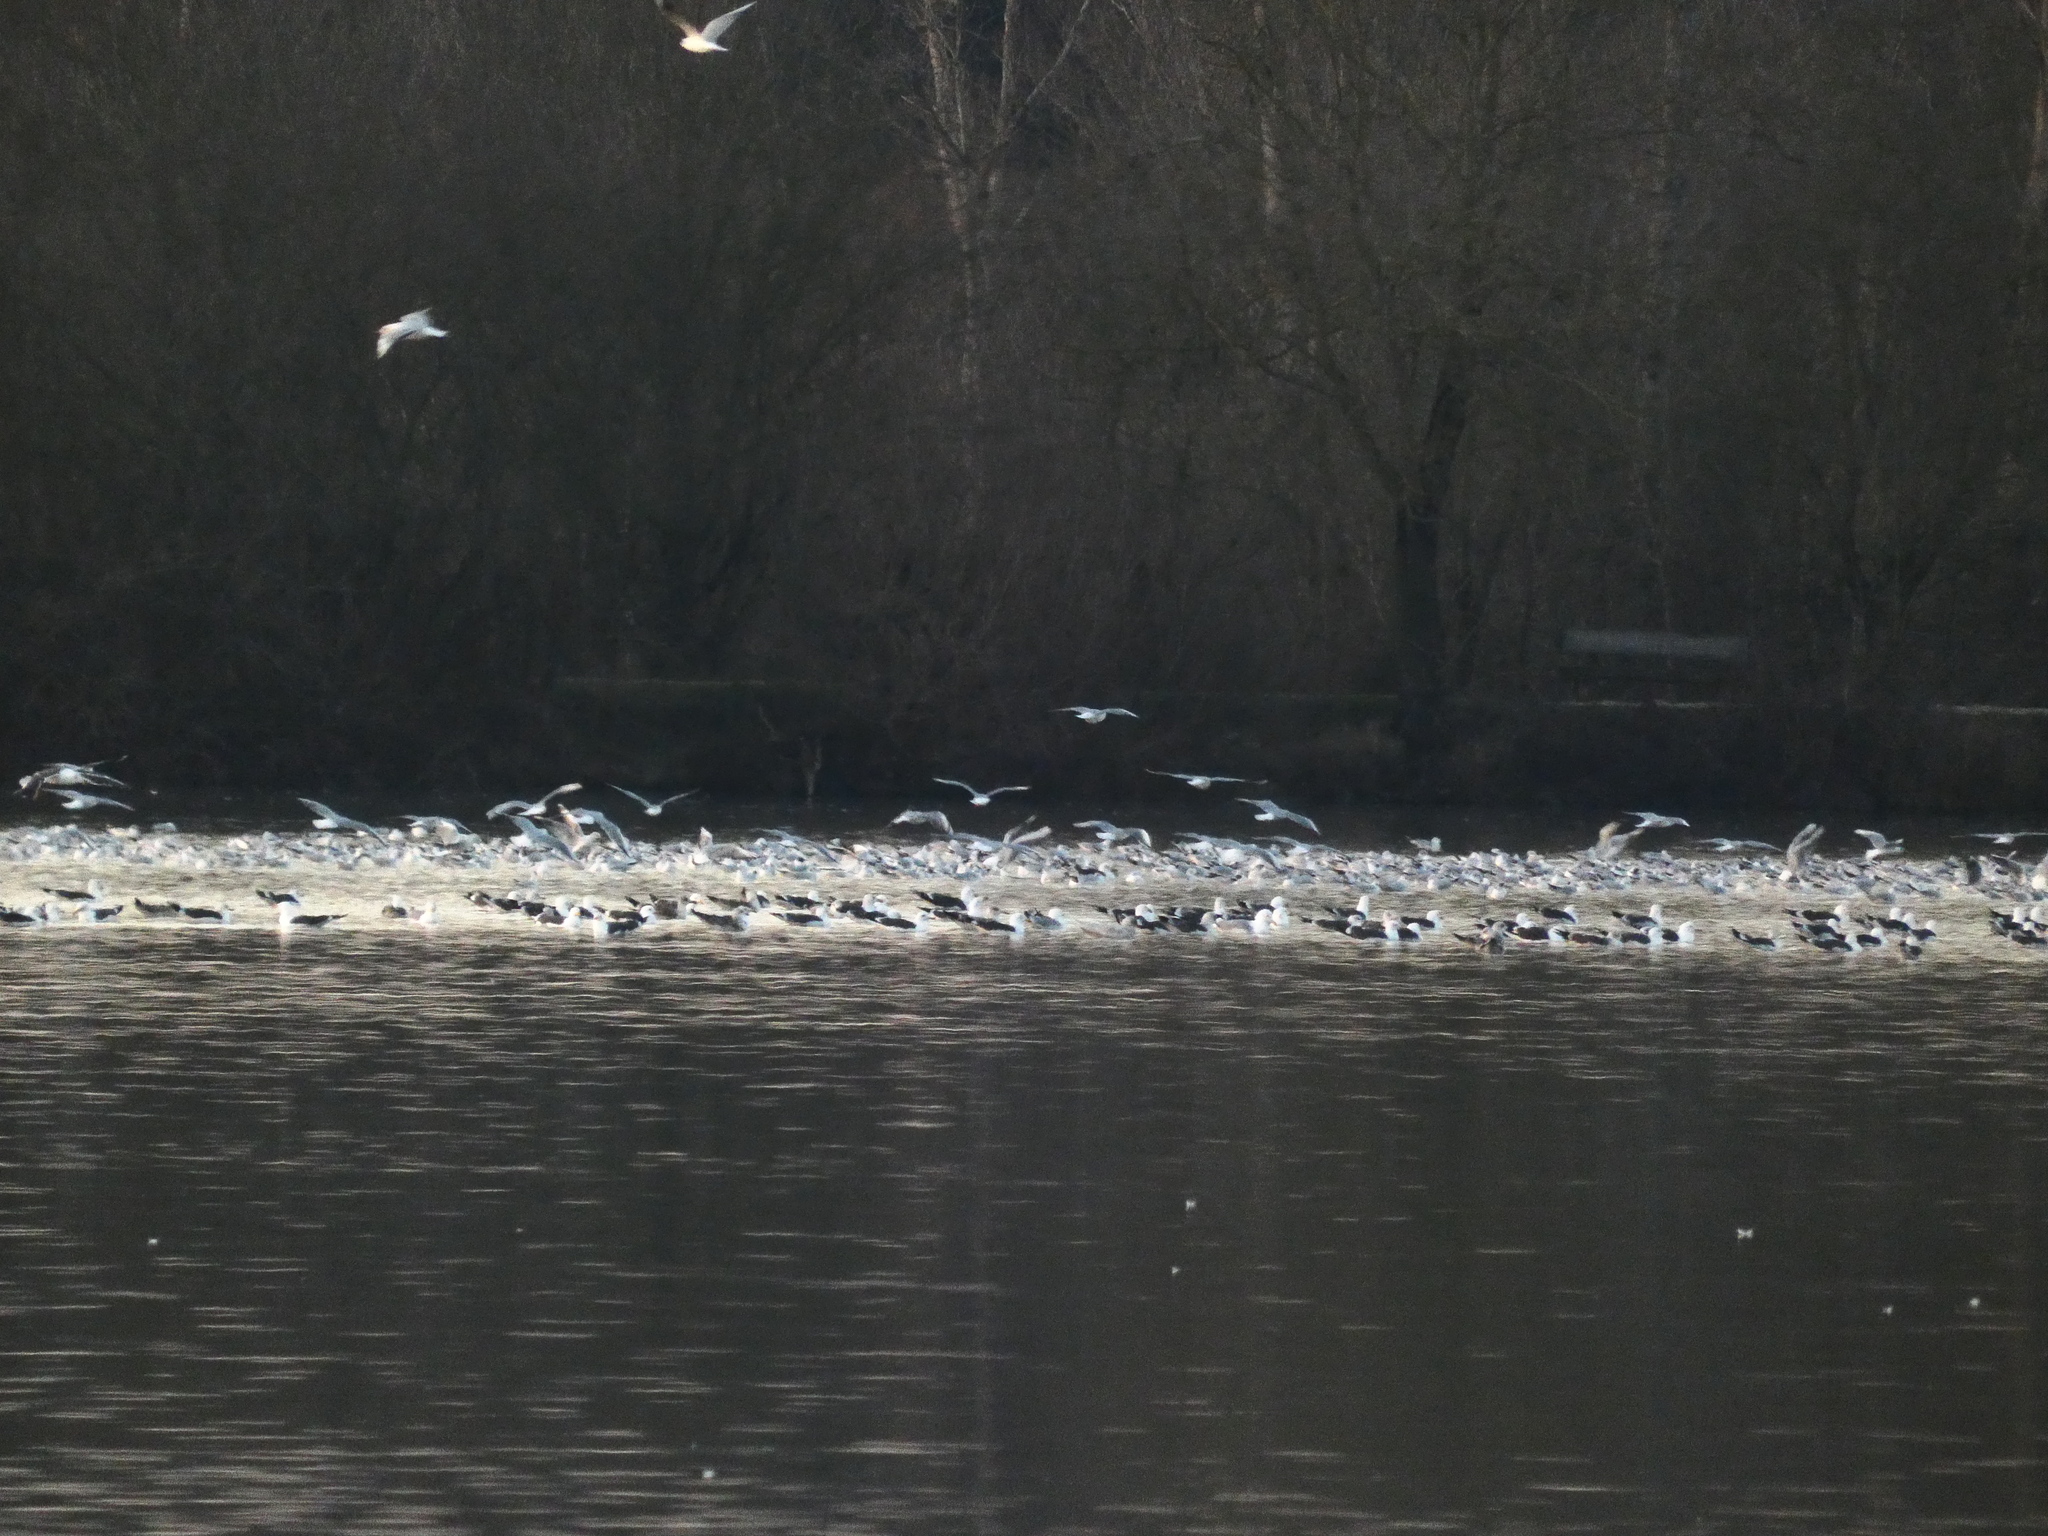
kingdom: Animalia
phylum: Chordata
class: Aves
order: Charadriiformes
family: Laridae
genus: Chroicocephalus
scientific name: Chroicocephalus ridibundus
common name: Black-headed gull
